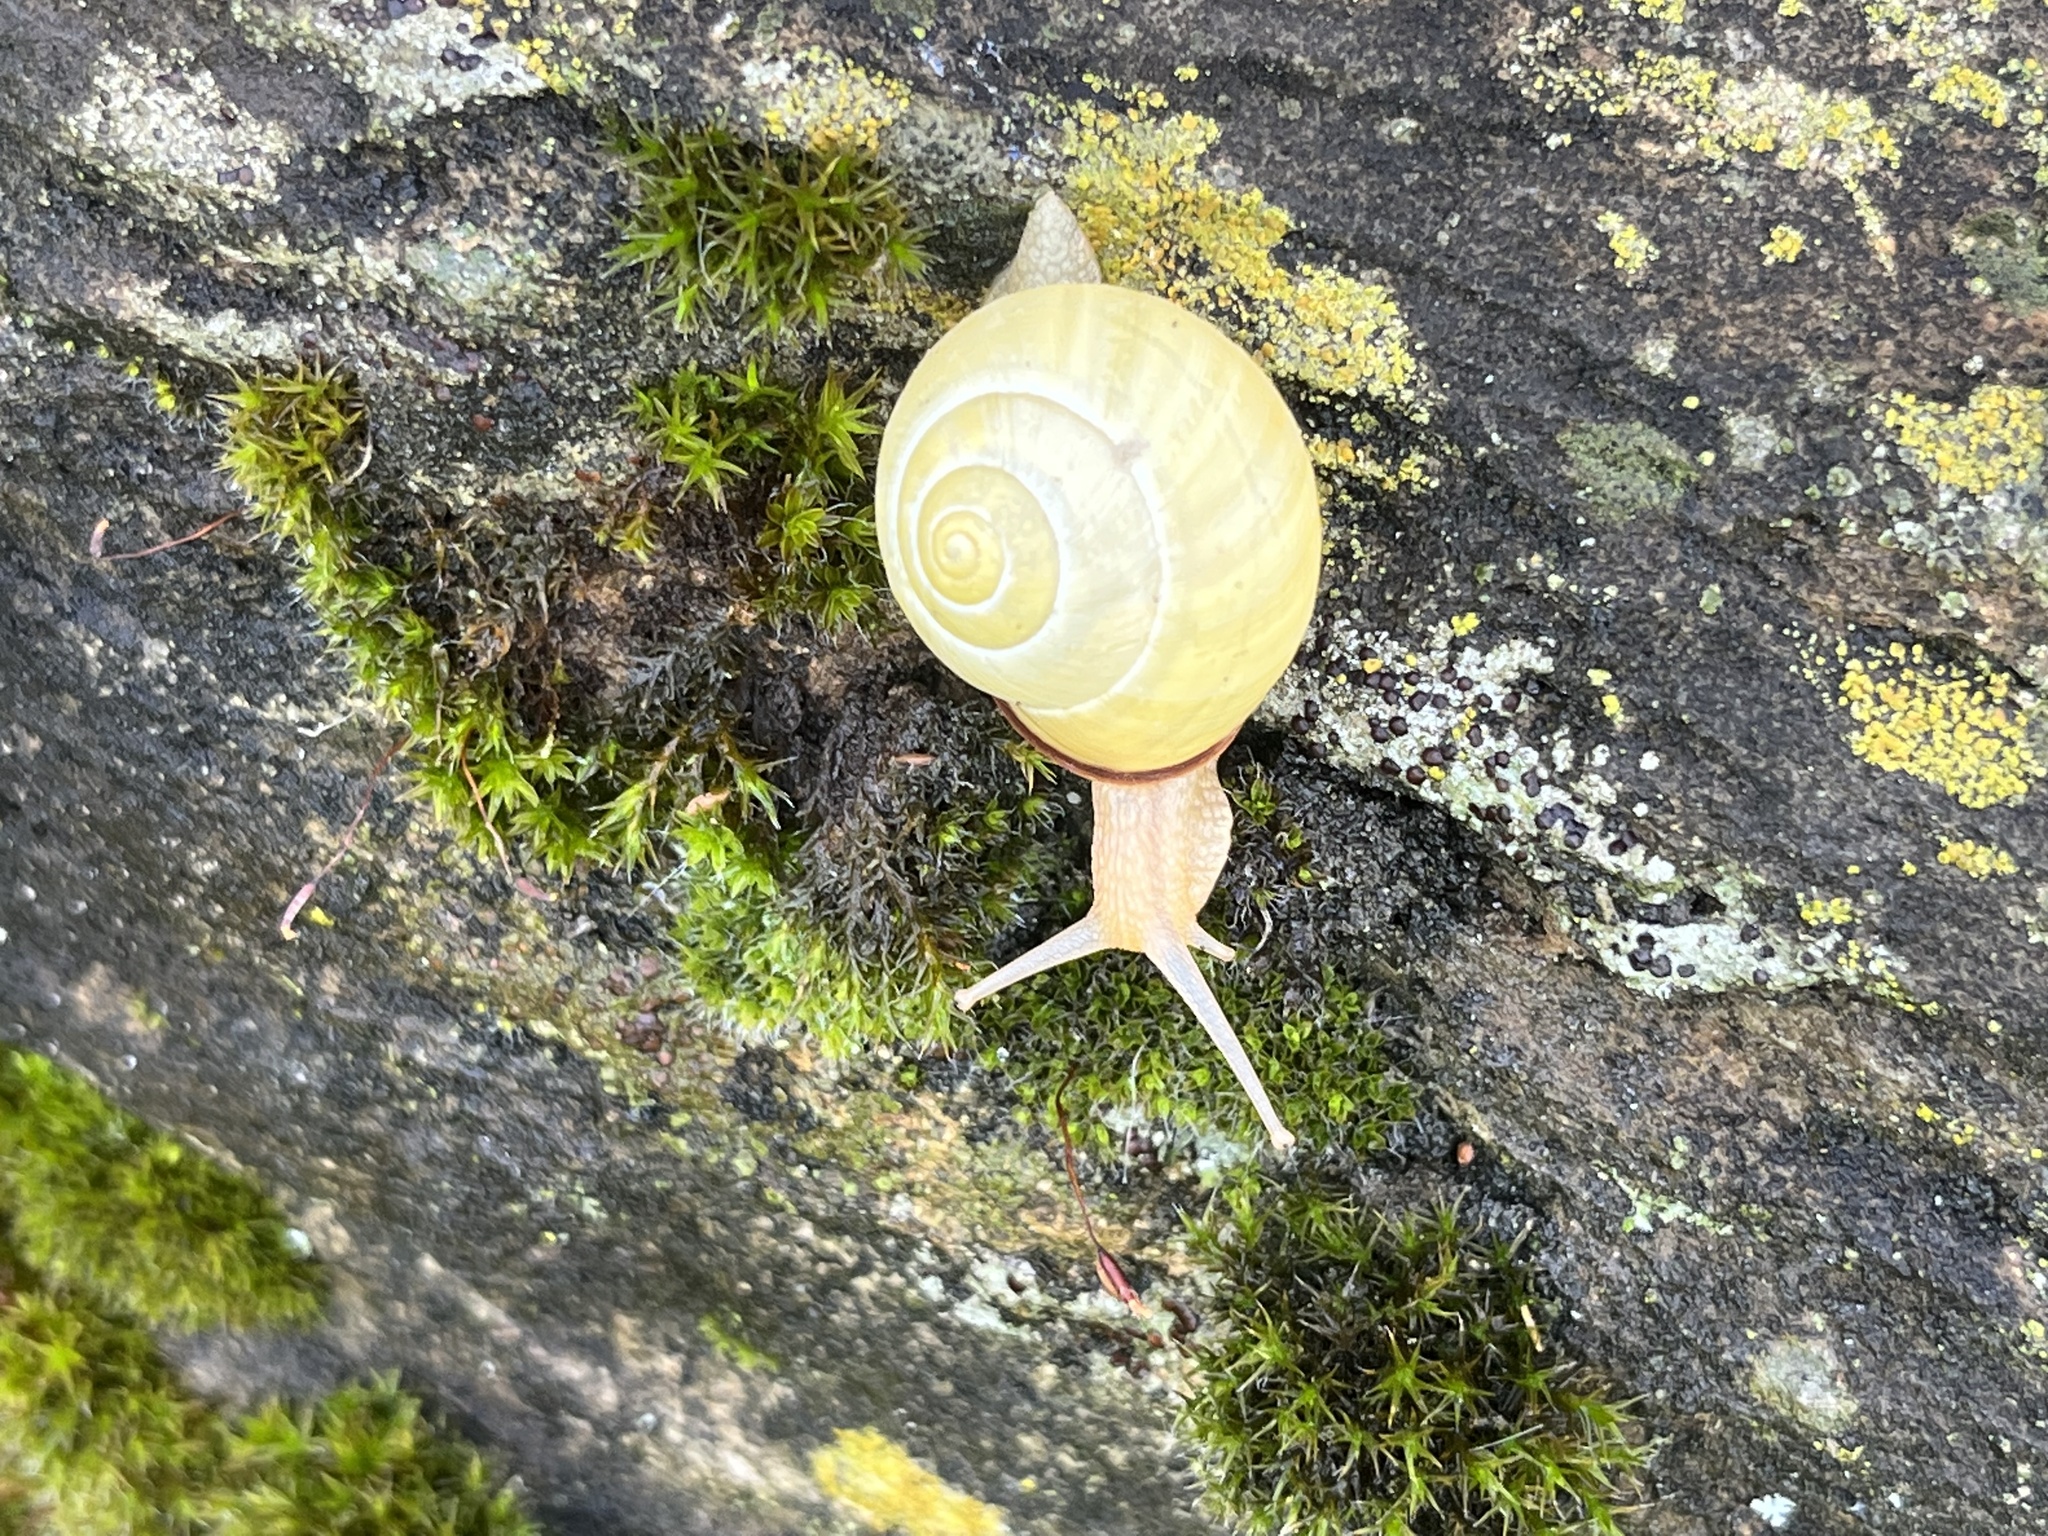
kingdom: Animalia
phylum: Mollusca
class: Gastropoda
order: Stylommatophora
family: Helicidae
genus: Cepaea
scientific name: Cepaea nemoralis
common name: Grovesnail
